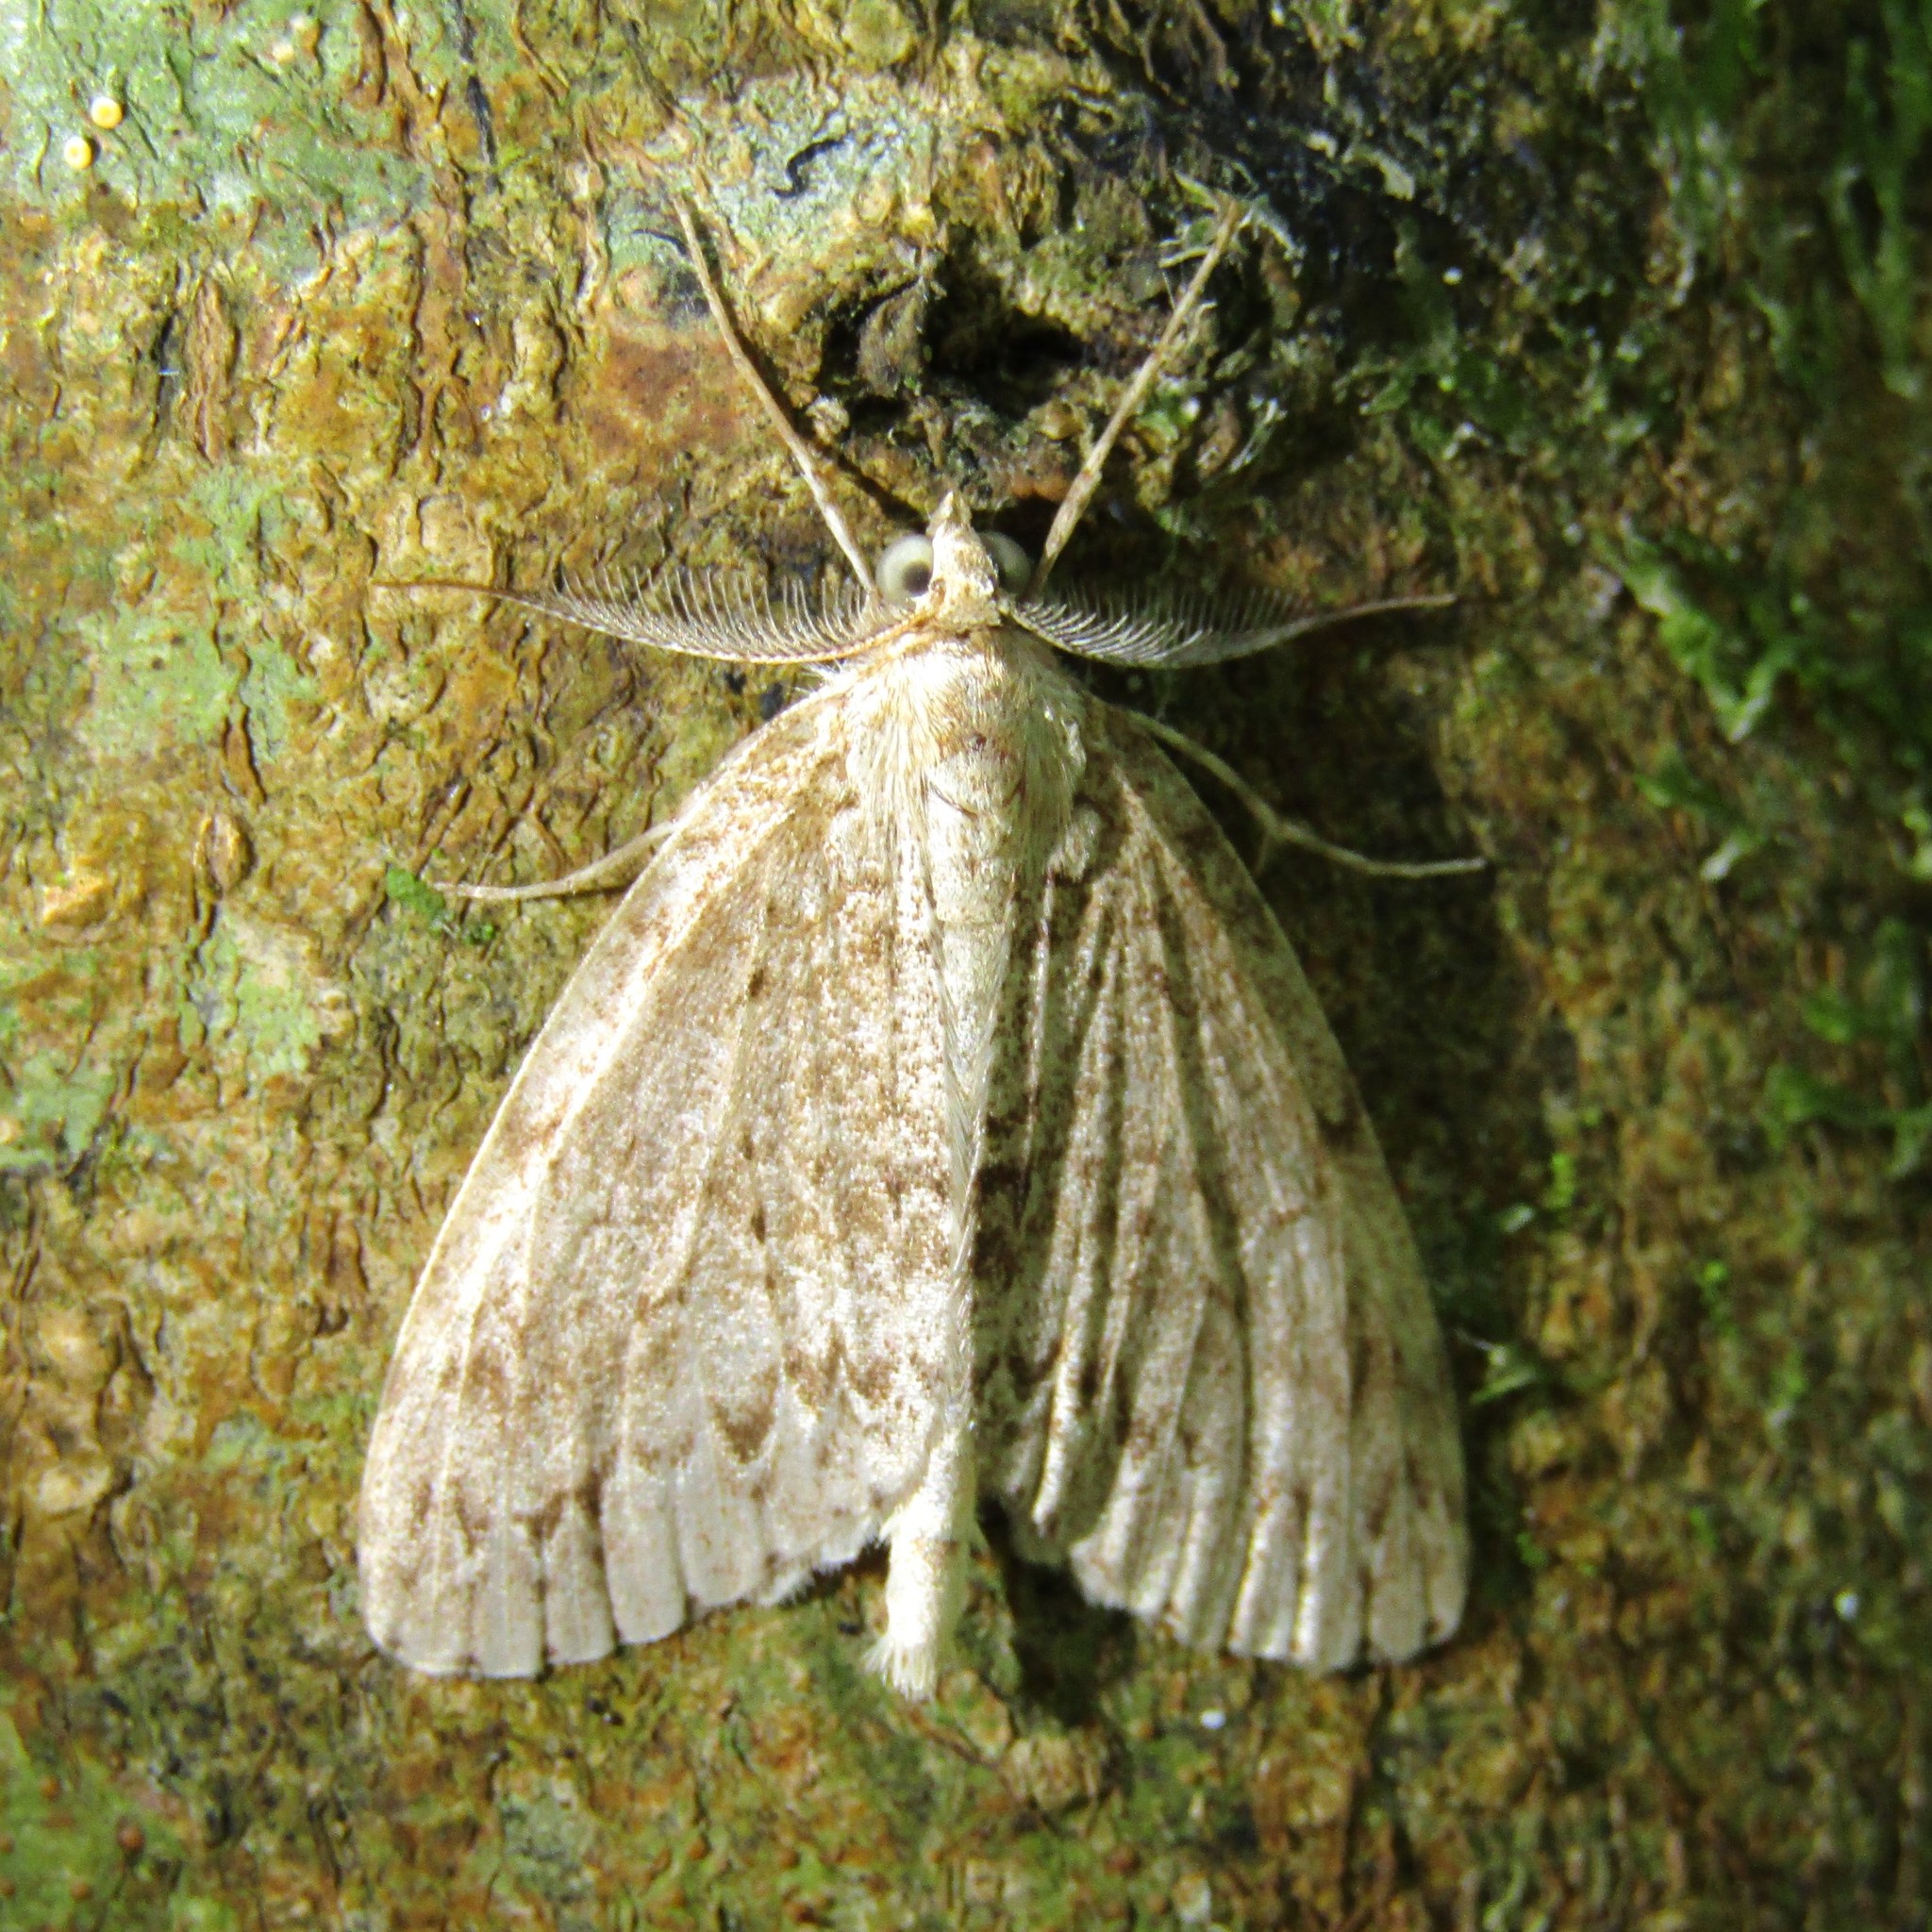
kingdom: Animalia
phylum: Arthropoda
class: Insecta
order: Lepidoptera
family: Geometridae
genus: Pseudocoremia
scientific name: Pseudocoremia fenerata
